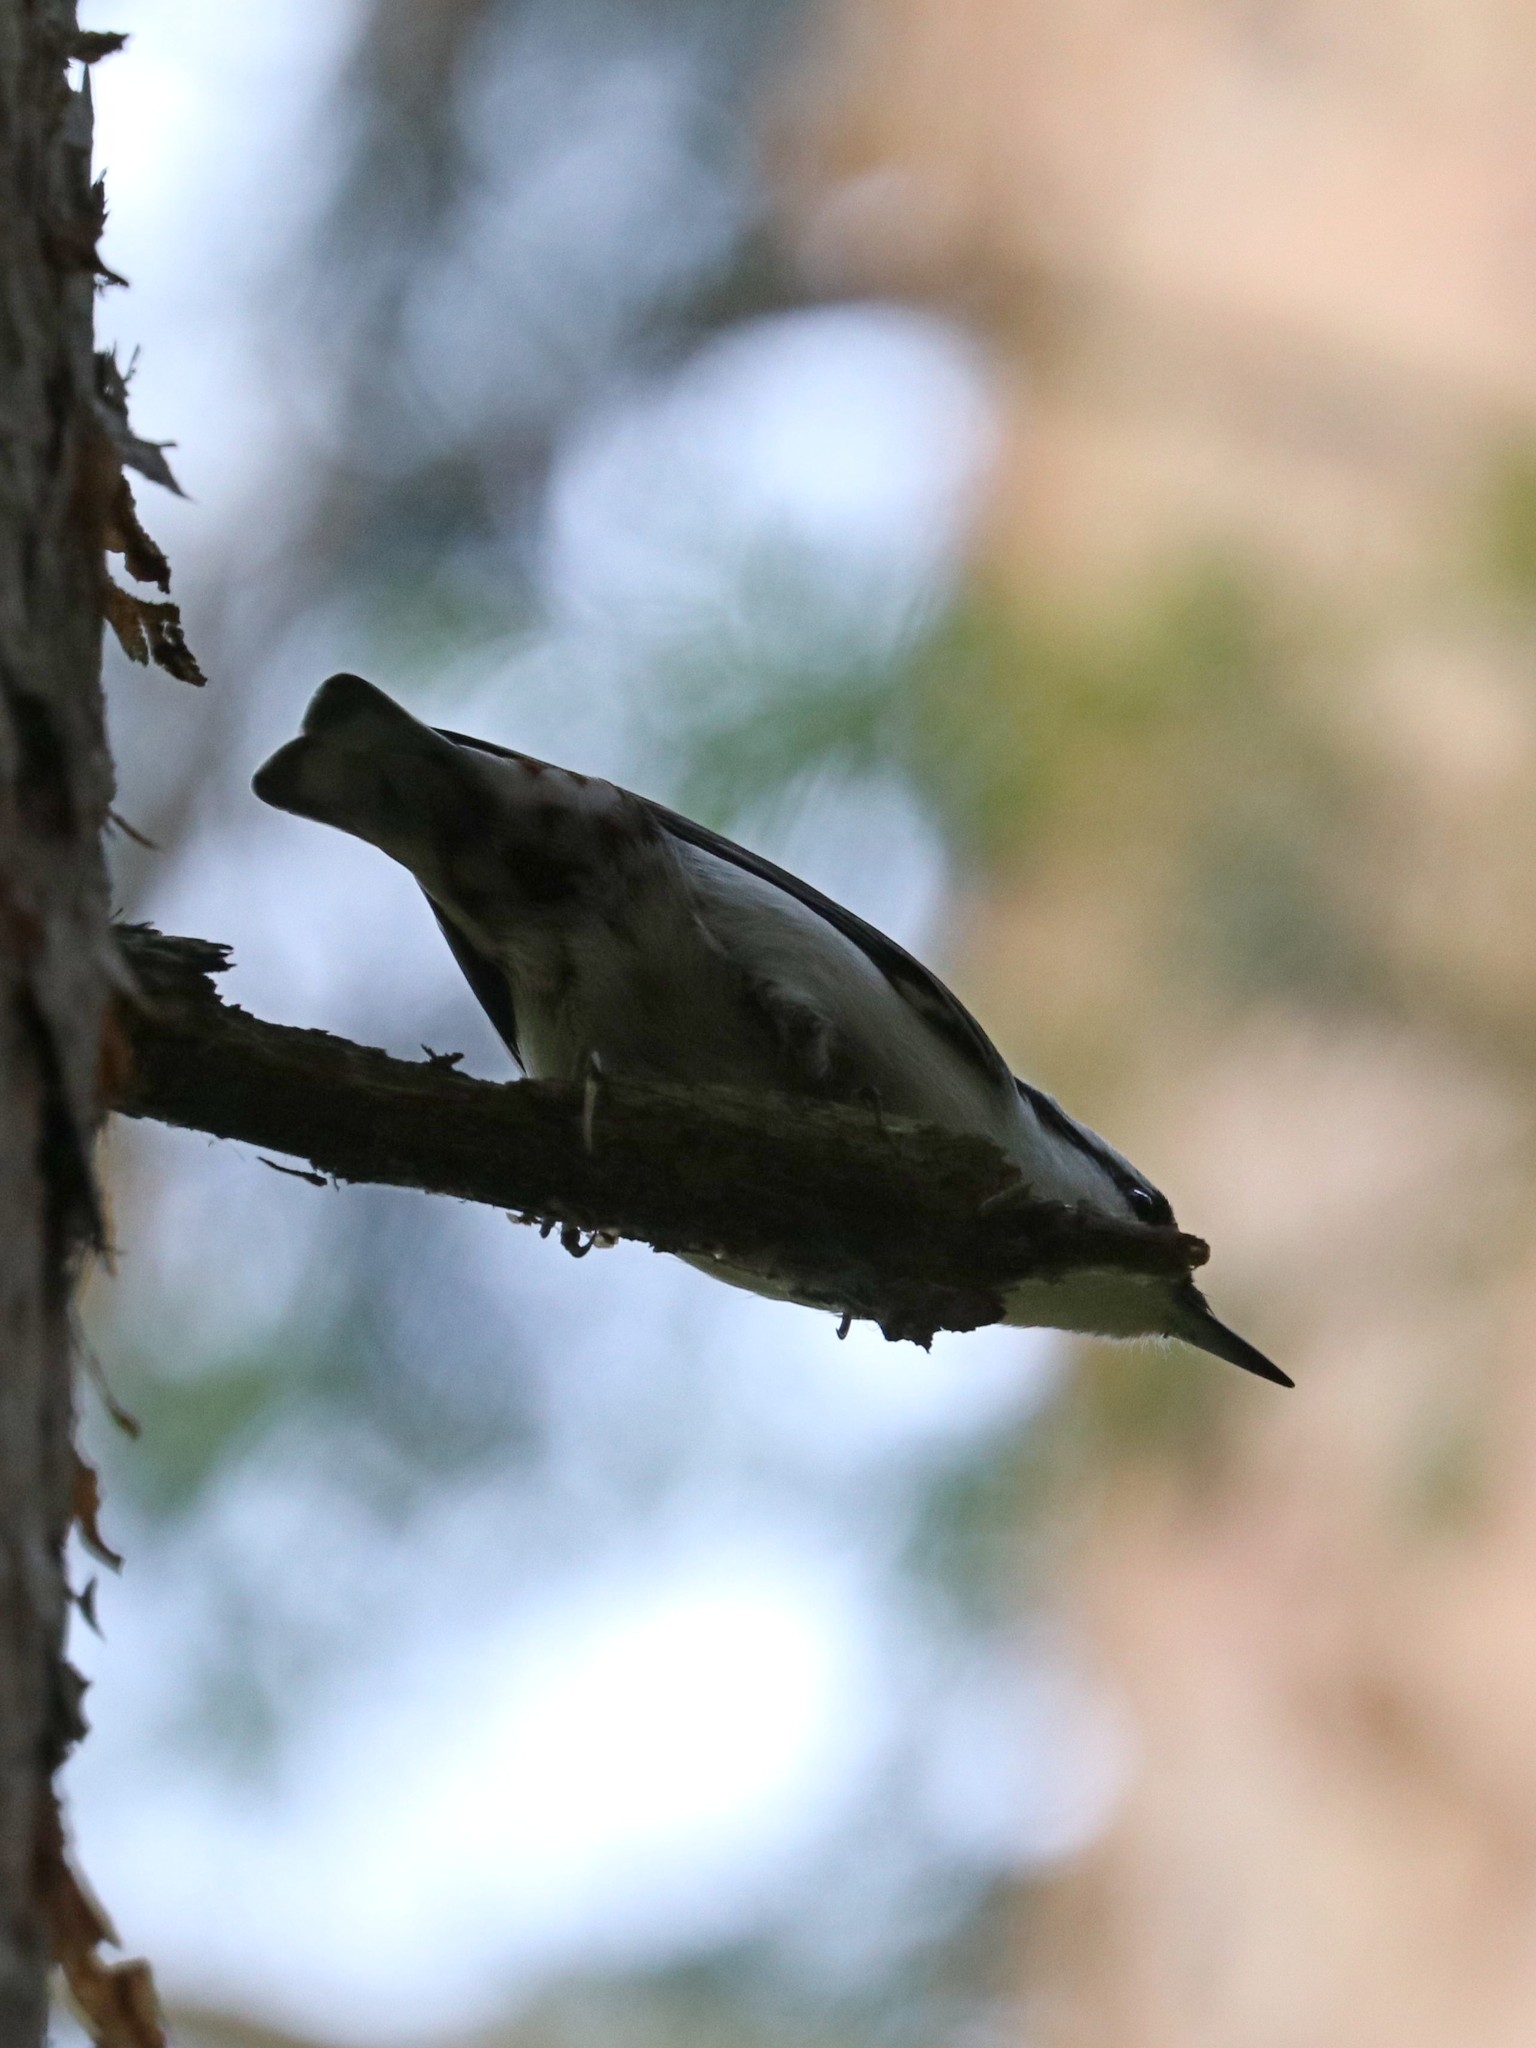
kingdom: Animalia
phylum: Chordata
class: Aves
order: Passeriformes
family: Sittidae
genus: Sitta
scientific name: Sitta europaea
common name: Eurasian nuthatch
